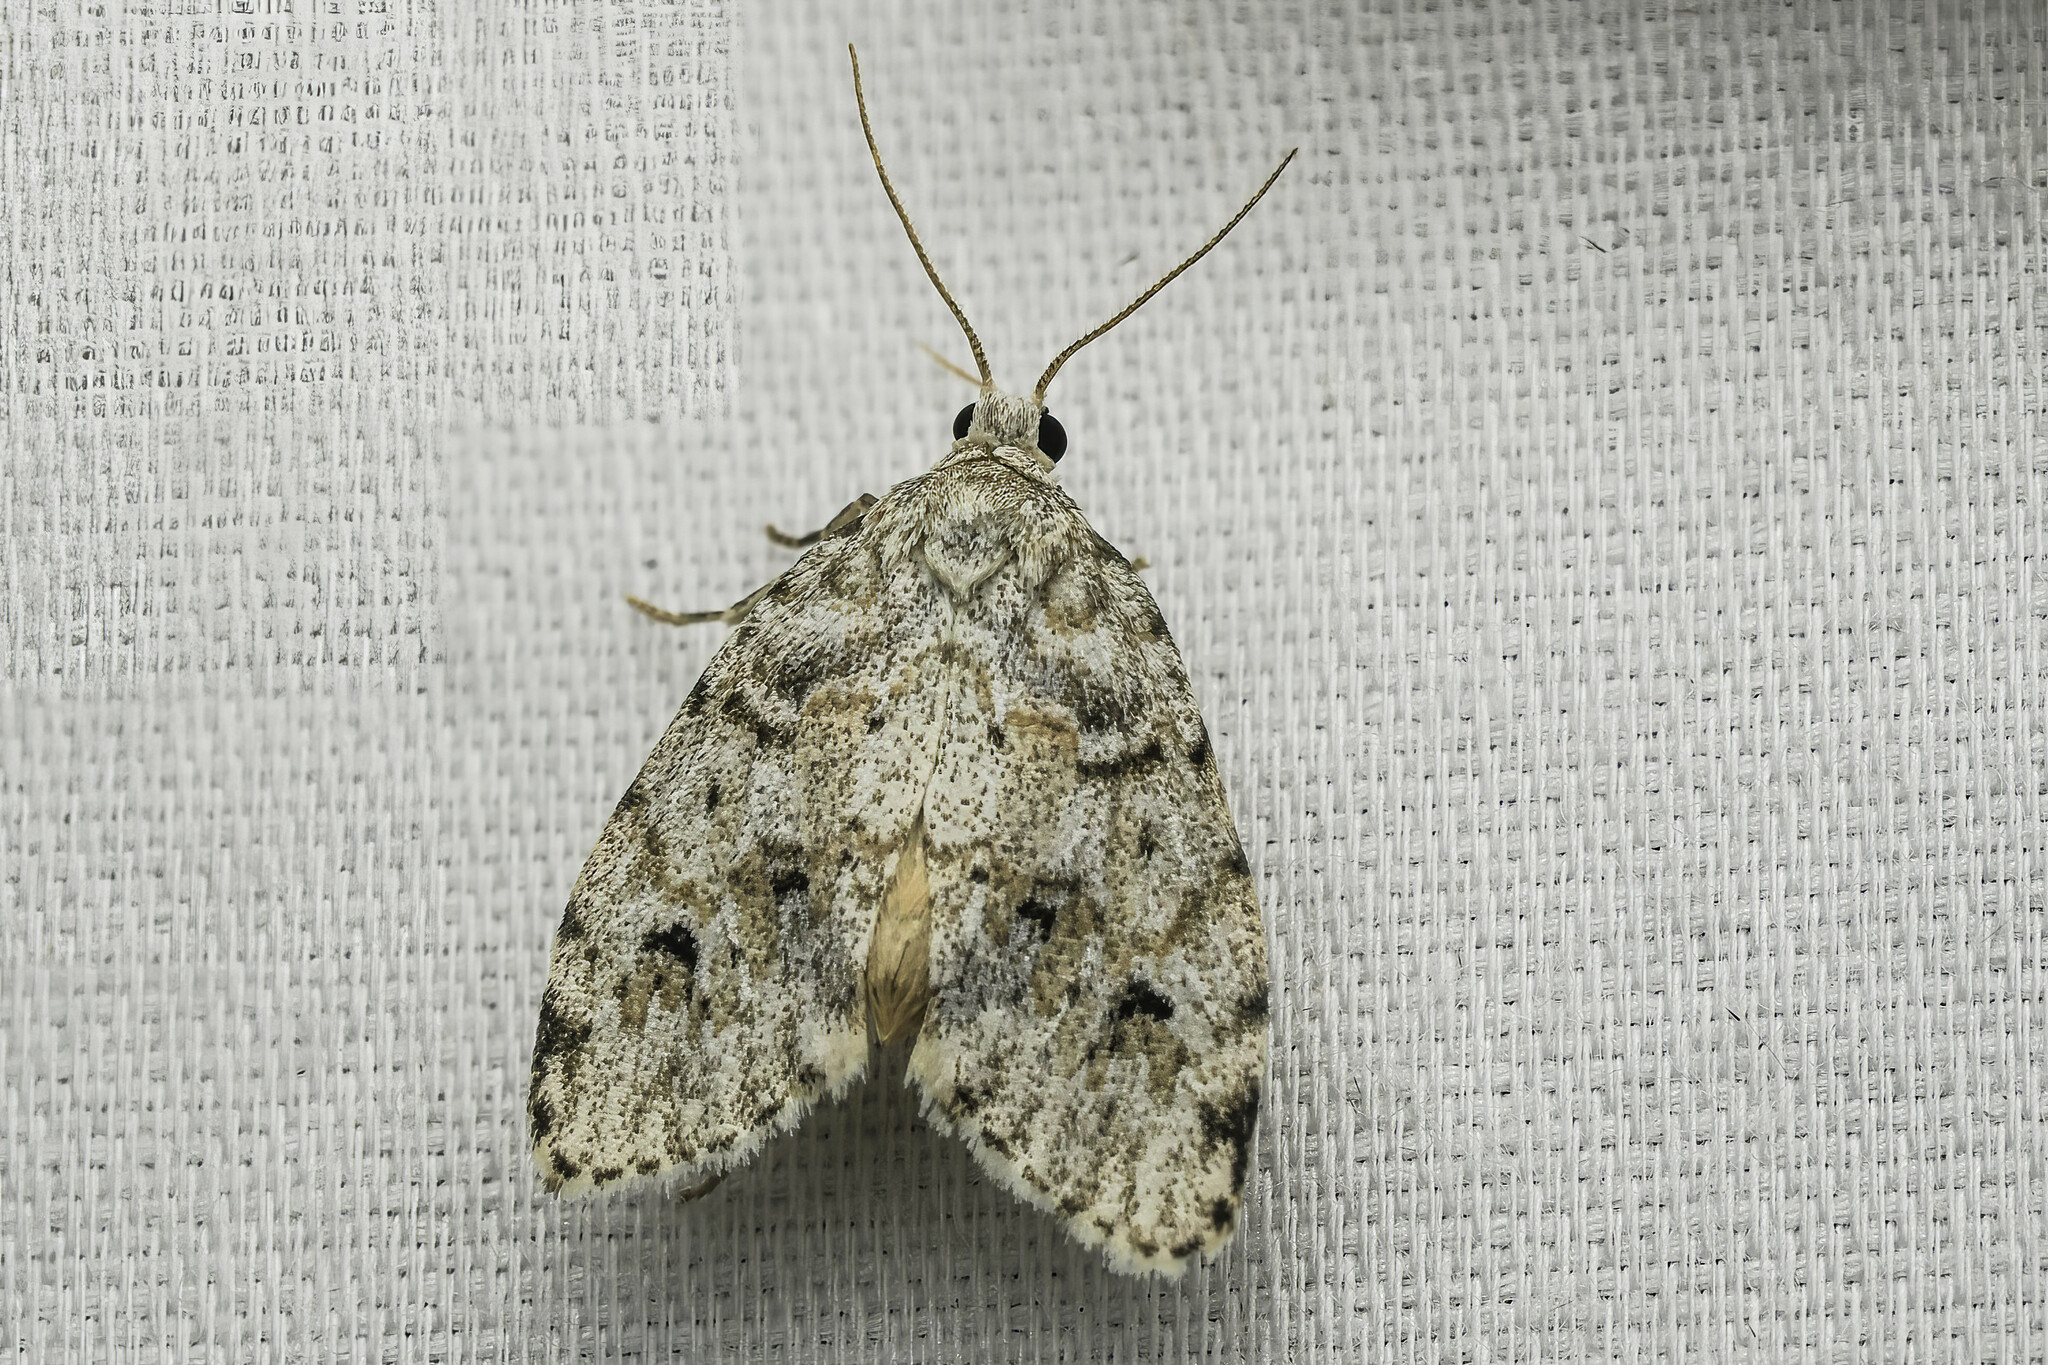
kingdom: Animalia
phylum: Arthropoda
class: Insecta
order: Lepidoptera
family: Erebidae
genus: Clemensia
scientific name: Clemensia albata
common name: Little white lichen moth
